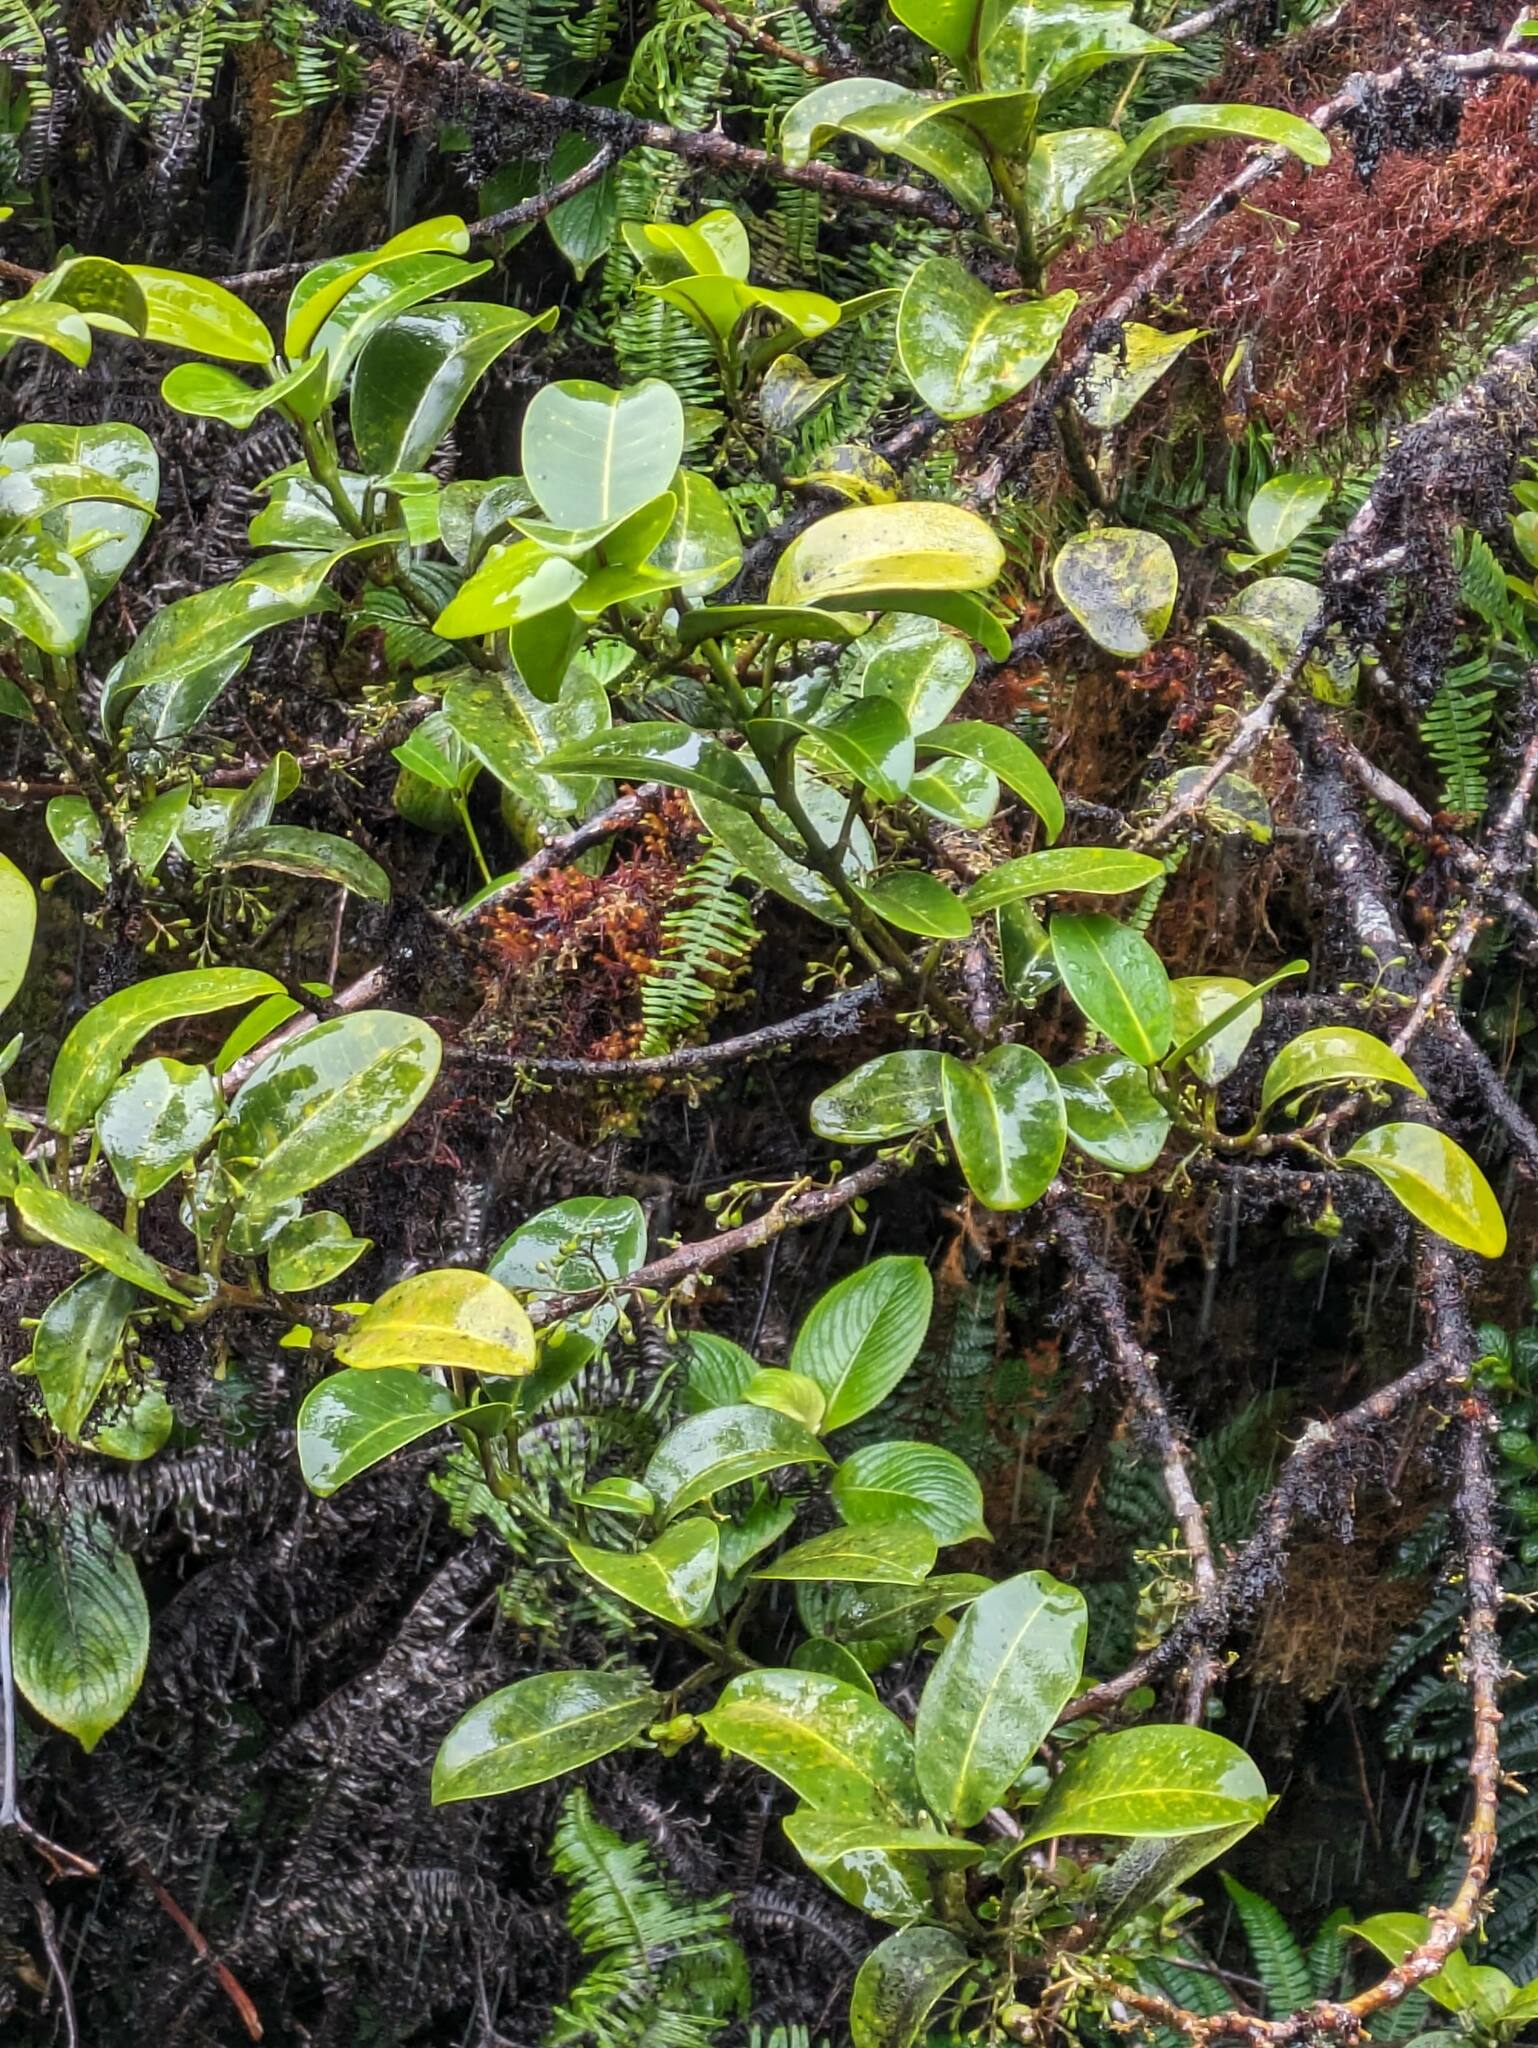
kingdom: Plantae
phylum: Tracheophyta
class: Magnoliopsida
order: Sapindales
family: Rutaceae
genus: Melicope
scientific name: Melicope wawreana
